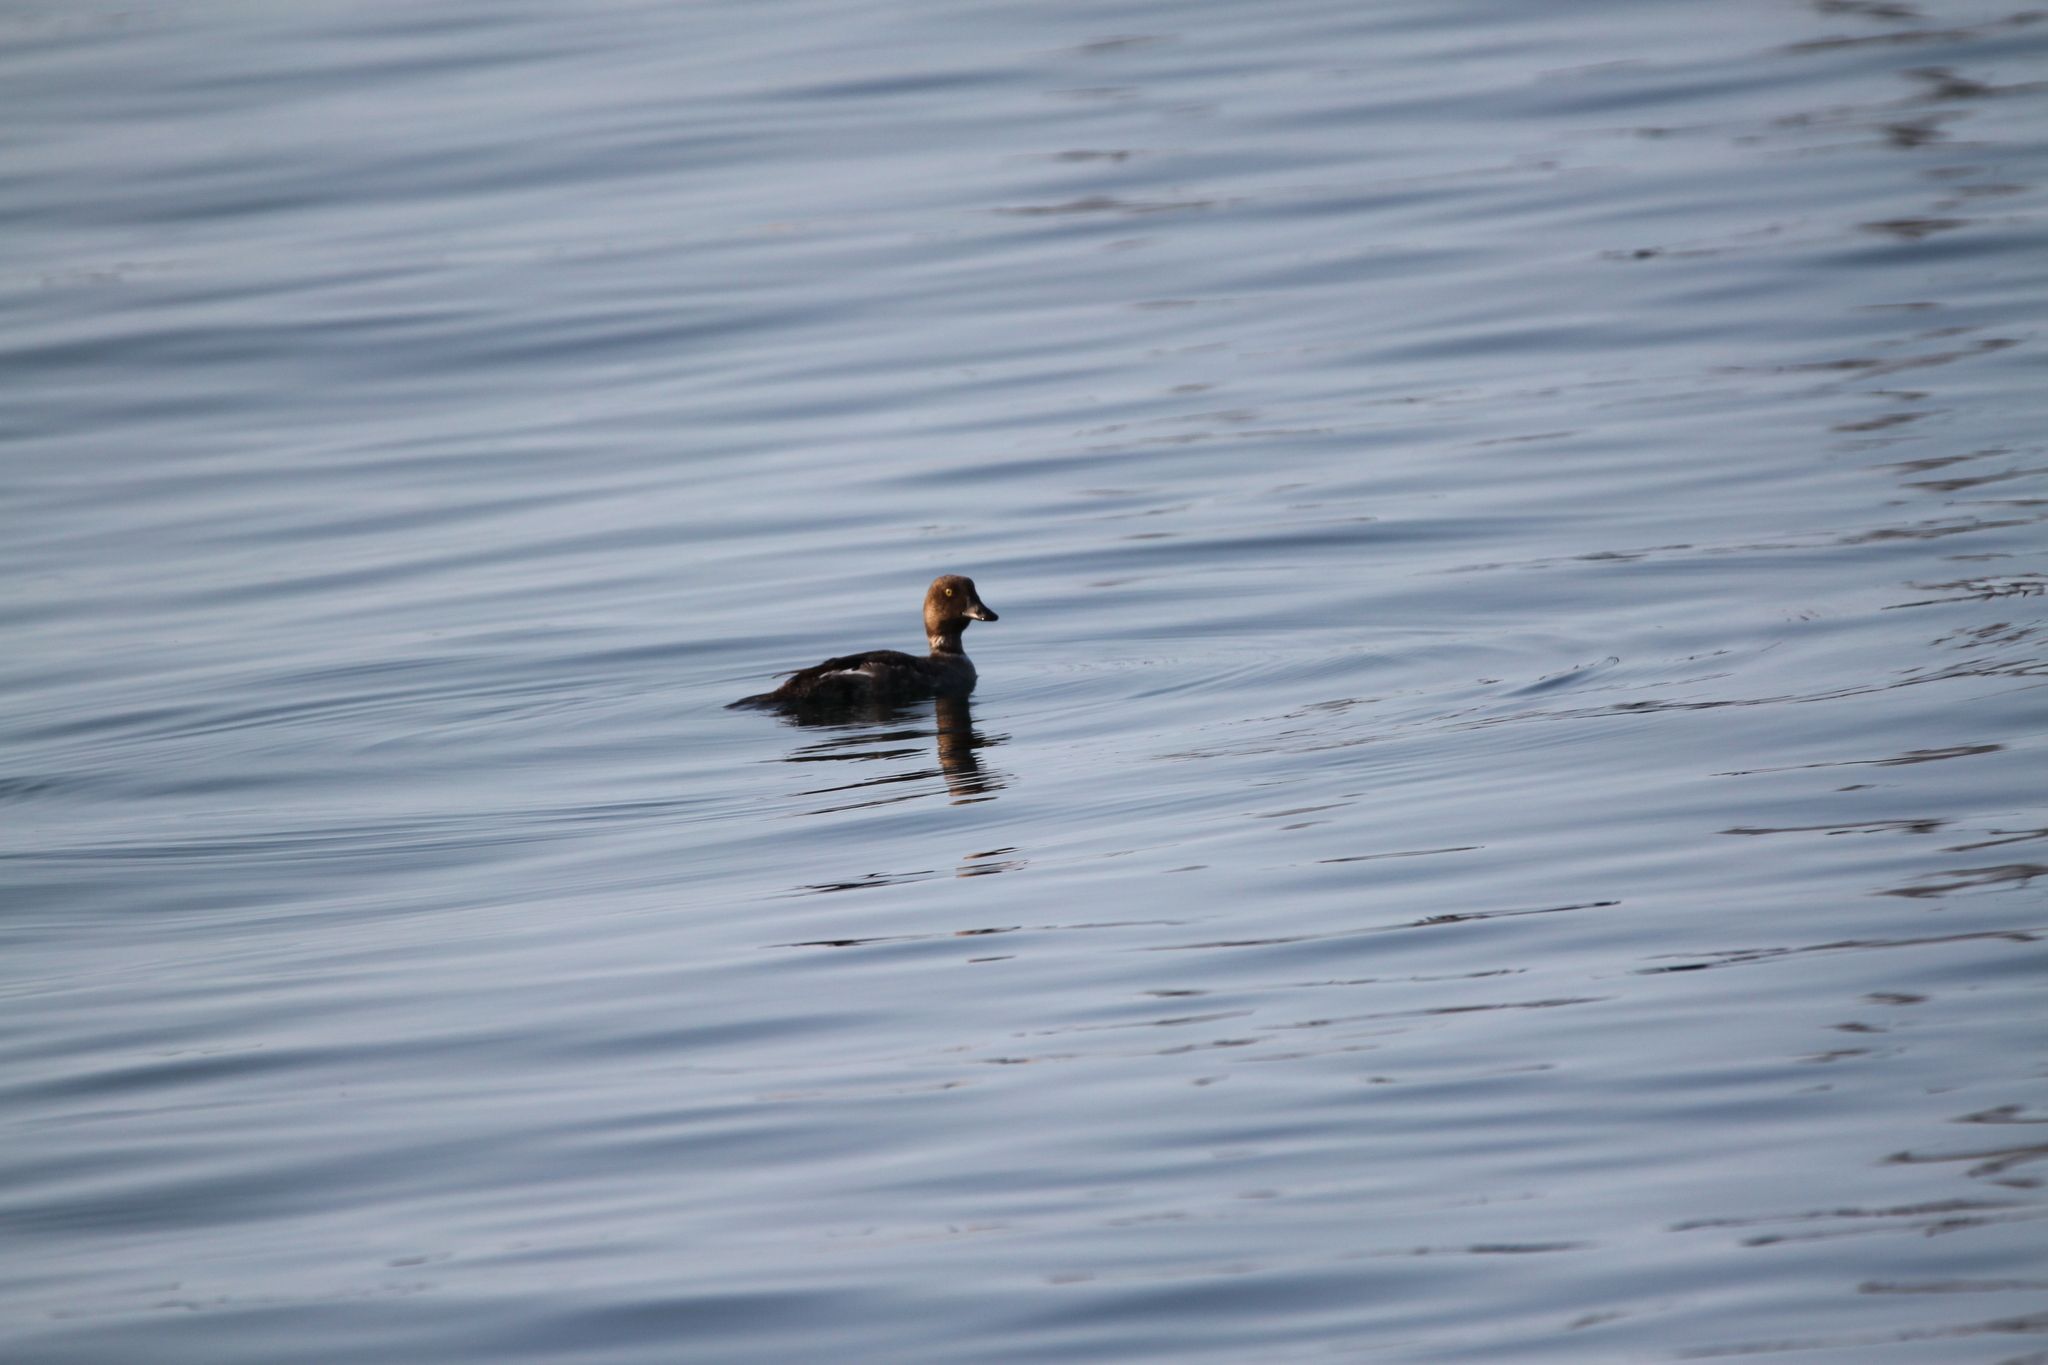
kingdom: Animalia
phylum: Chordata
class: Aves
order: Anseriformes
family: Anatidae
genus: Bucephala
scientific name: Bucephala clangula
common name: Common goldeneye
